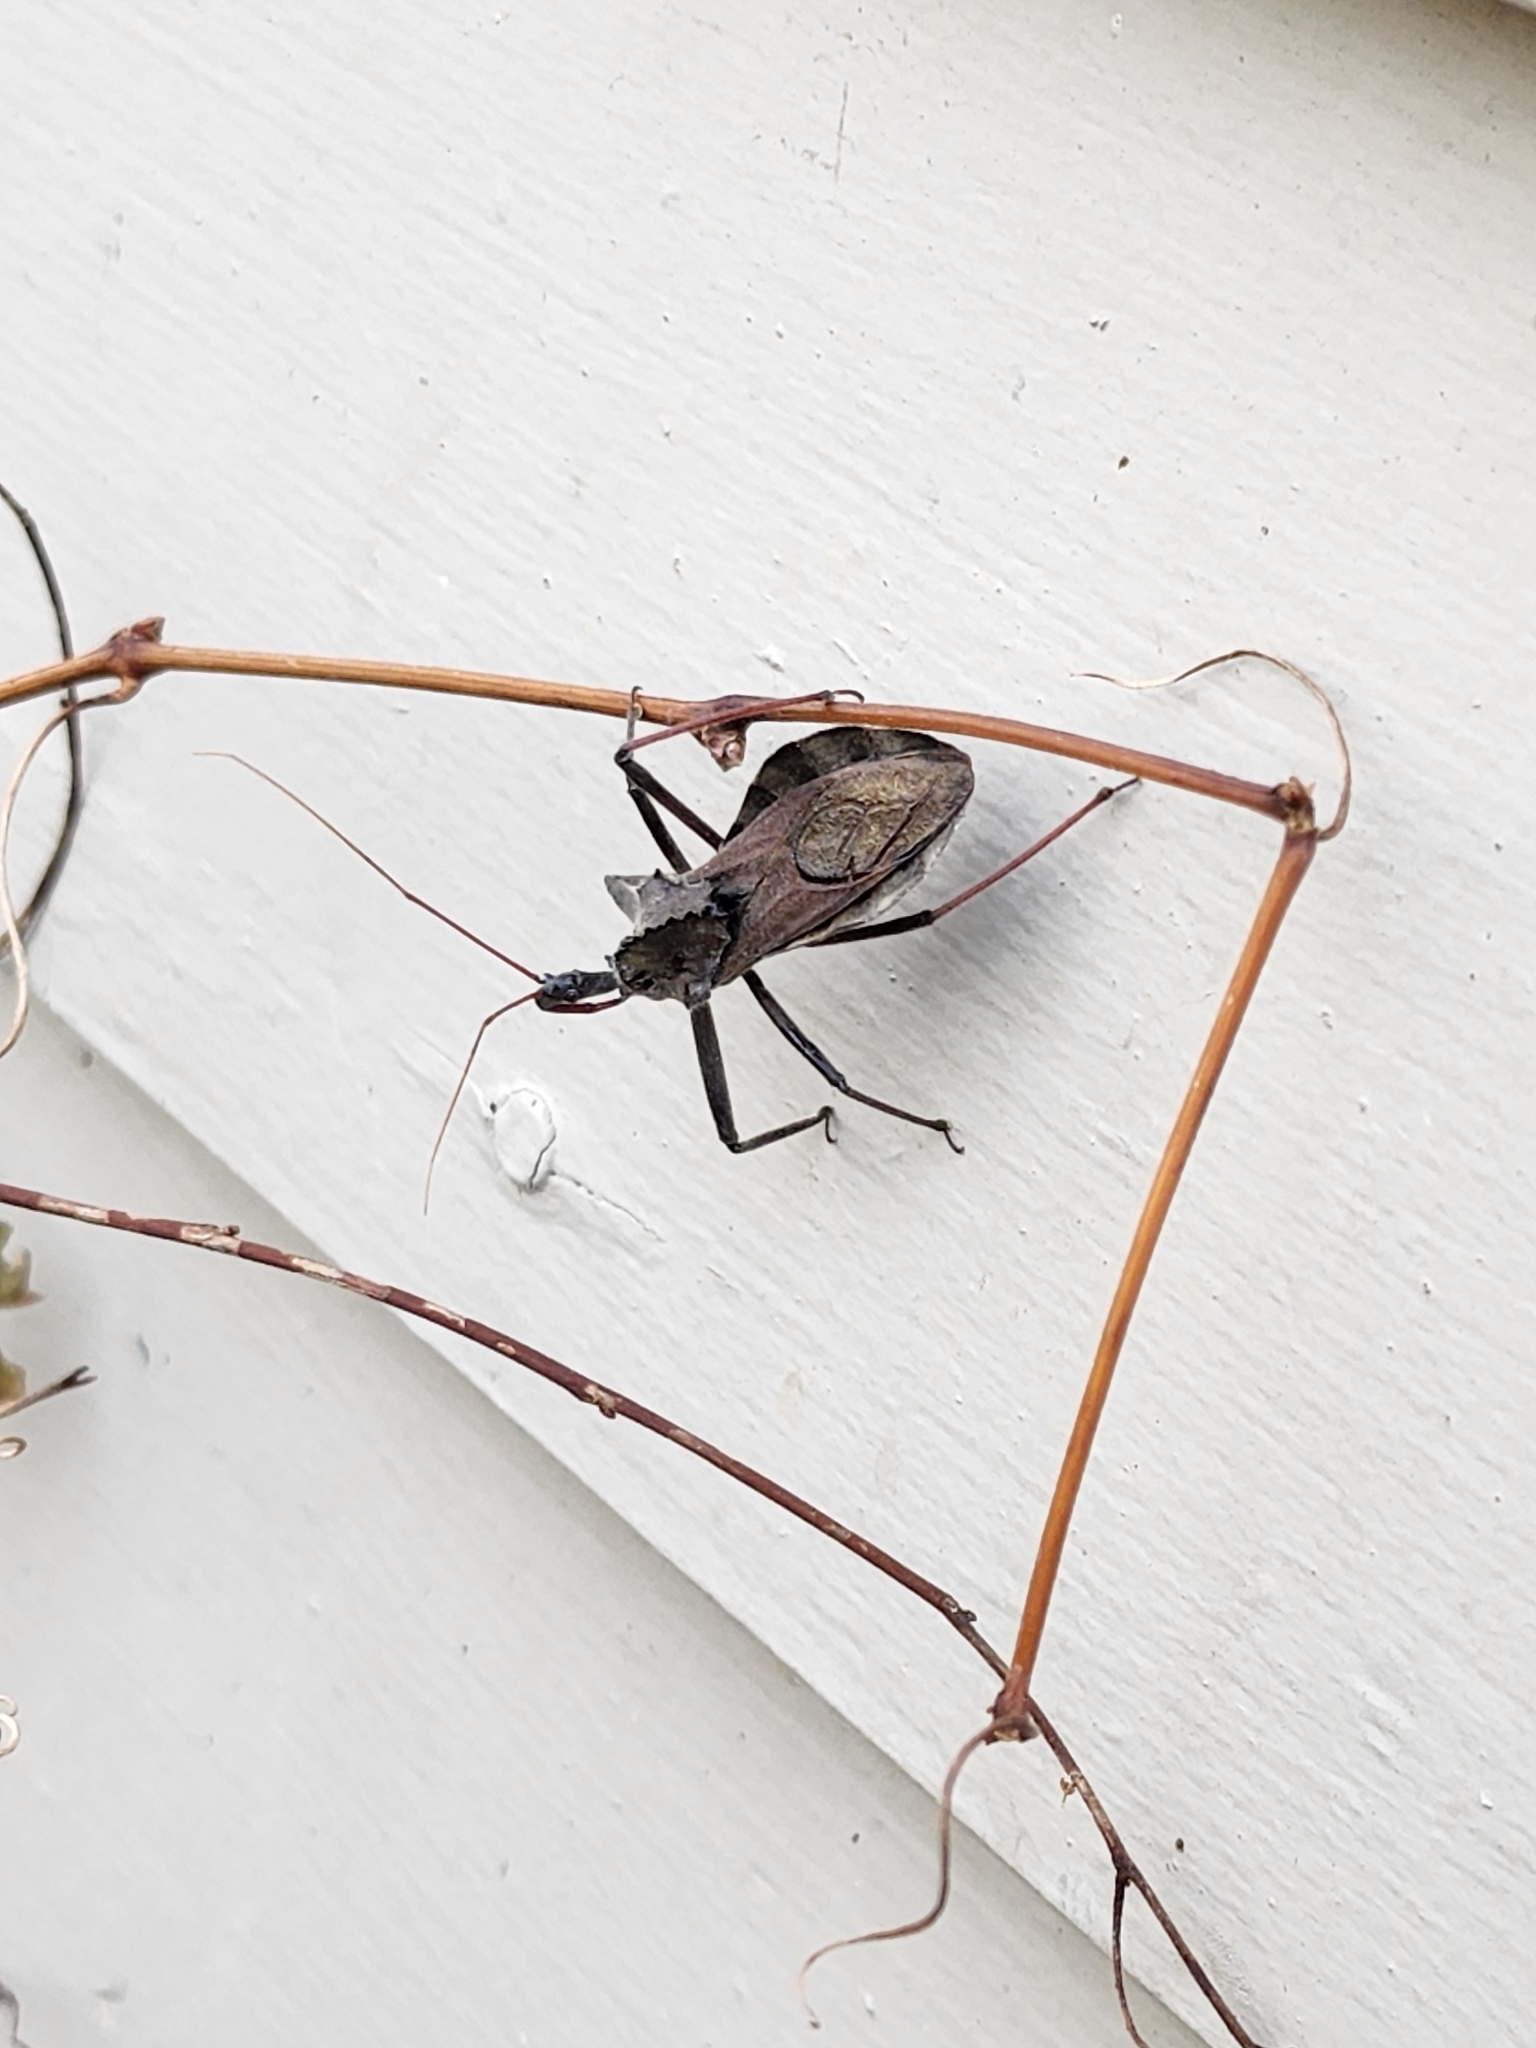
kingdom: Animalia
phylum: Arthropoda
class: Insecta
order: Hemiptera
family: Reduviidae
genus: Arilus
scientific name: Arilus cristatus
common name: North american wheel bug
